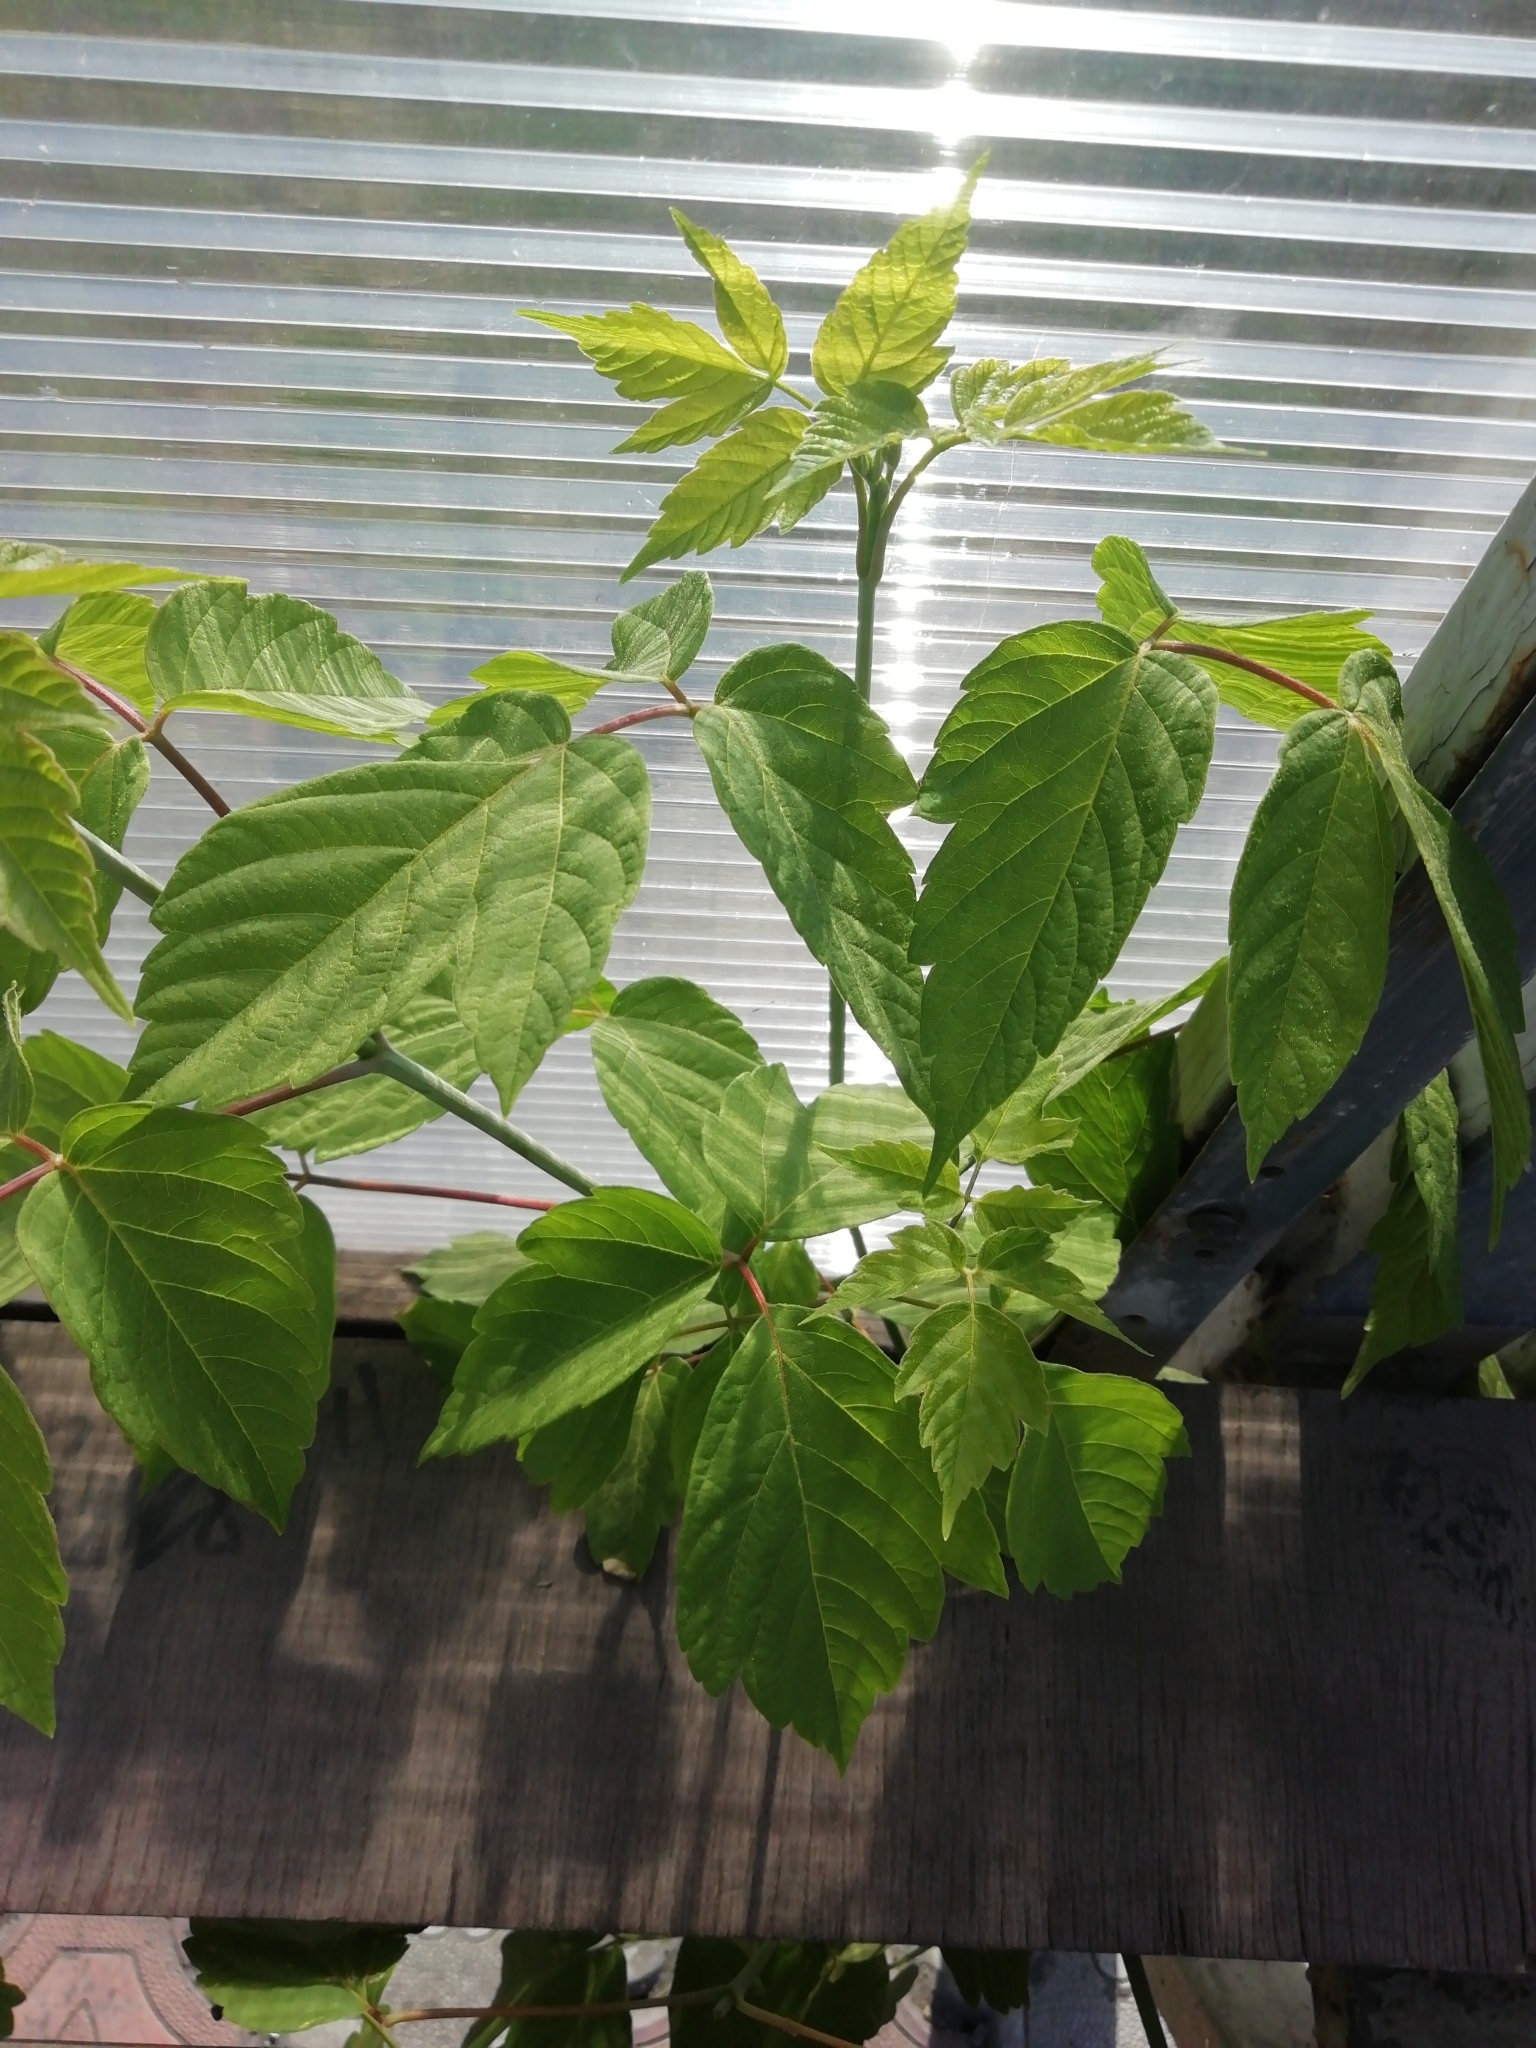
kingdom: Plantae
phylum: Tracheophyta
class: Magnoliopsida
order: Sapindales
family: Sapindaceae
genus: Acer
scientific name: Acer negundo
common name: Ashleaf maple
